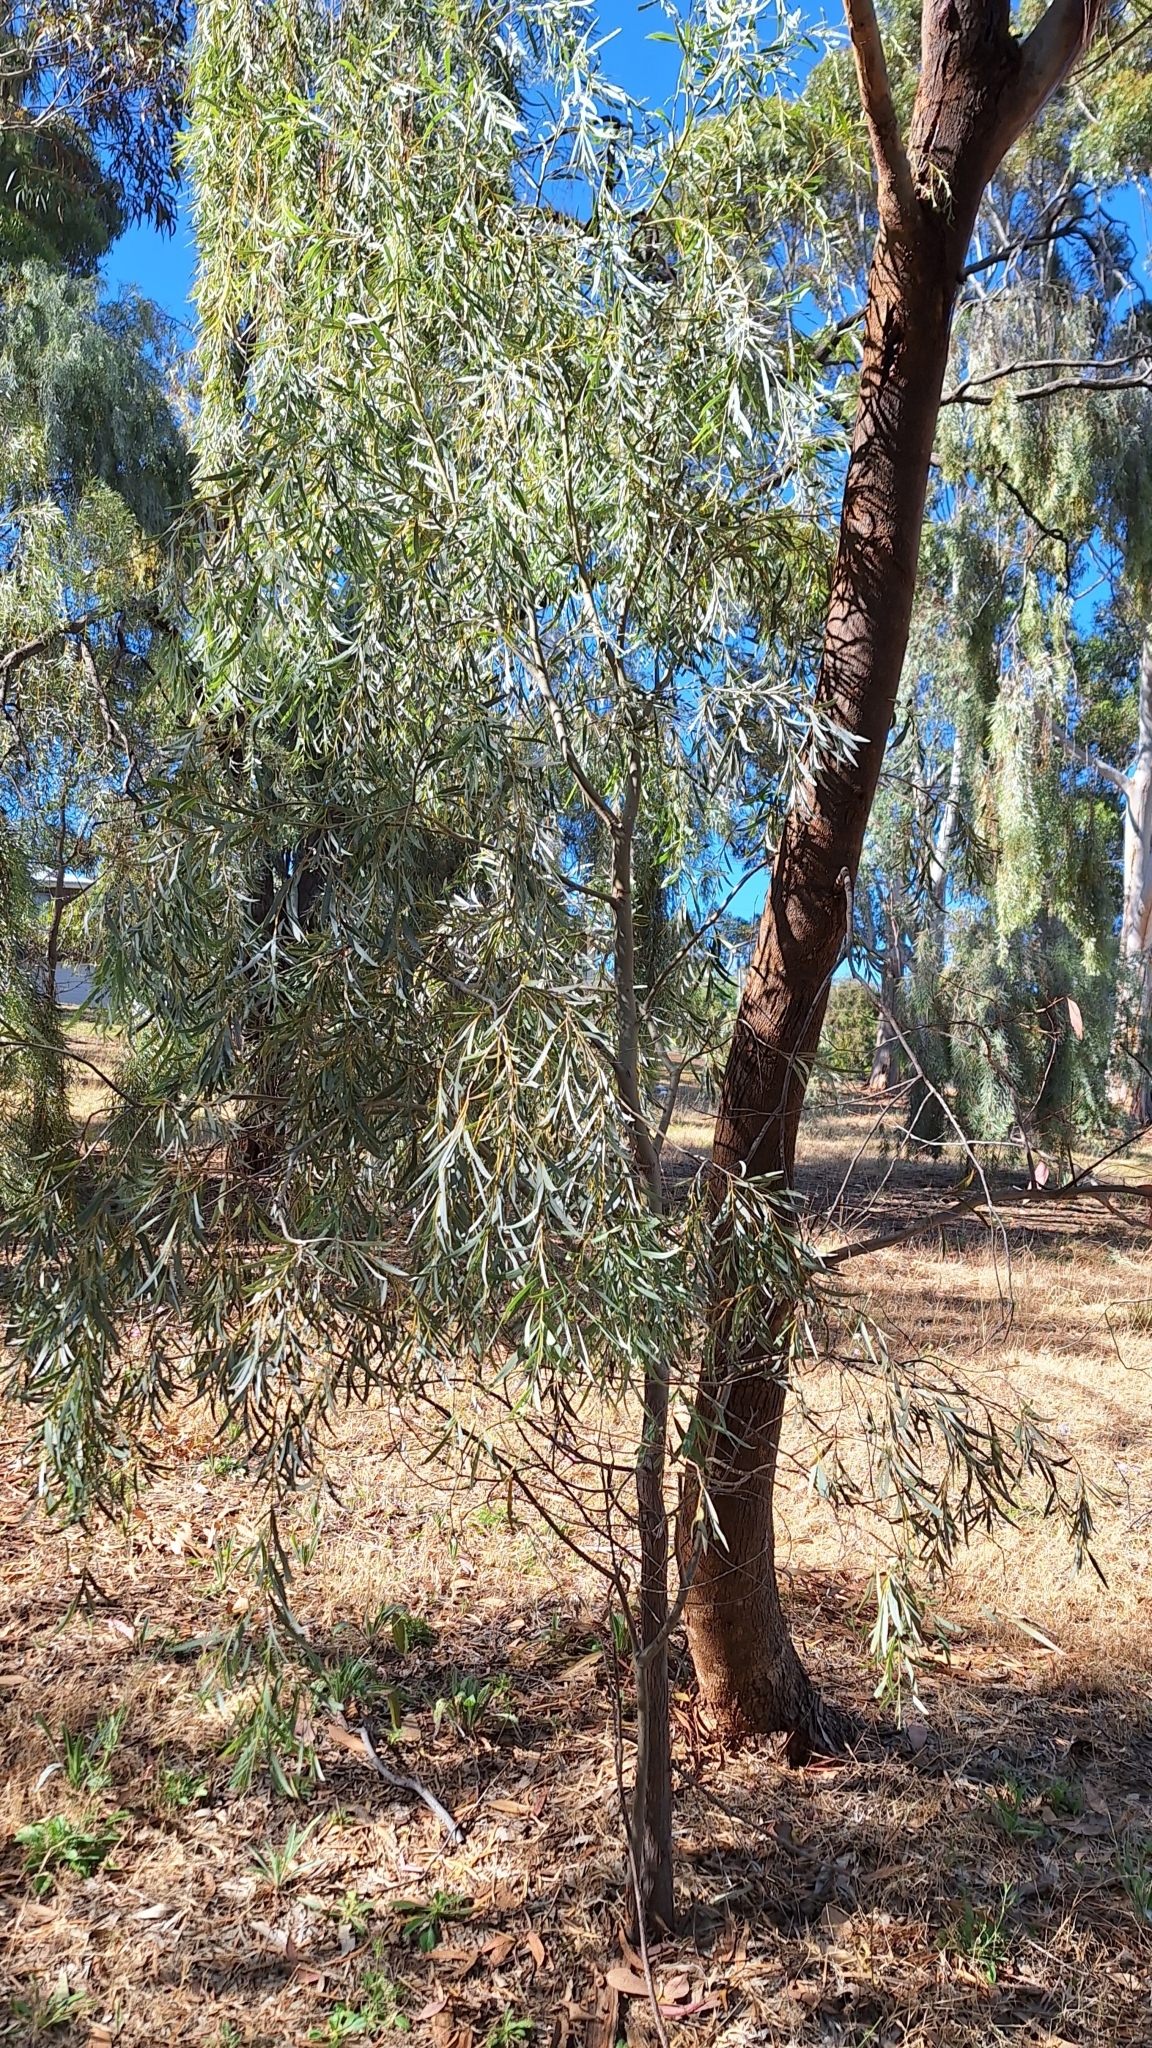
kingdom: Plantae
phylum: Tracheophyta
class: Magnoliopsida
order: Fabales
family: Fabaceae
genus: Acacia
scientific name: Acacia pendula
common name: Weeping myall
